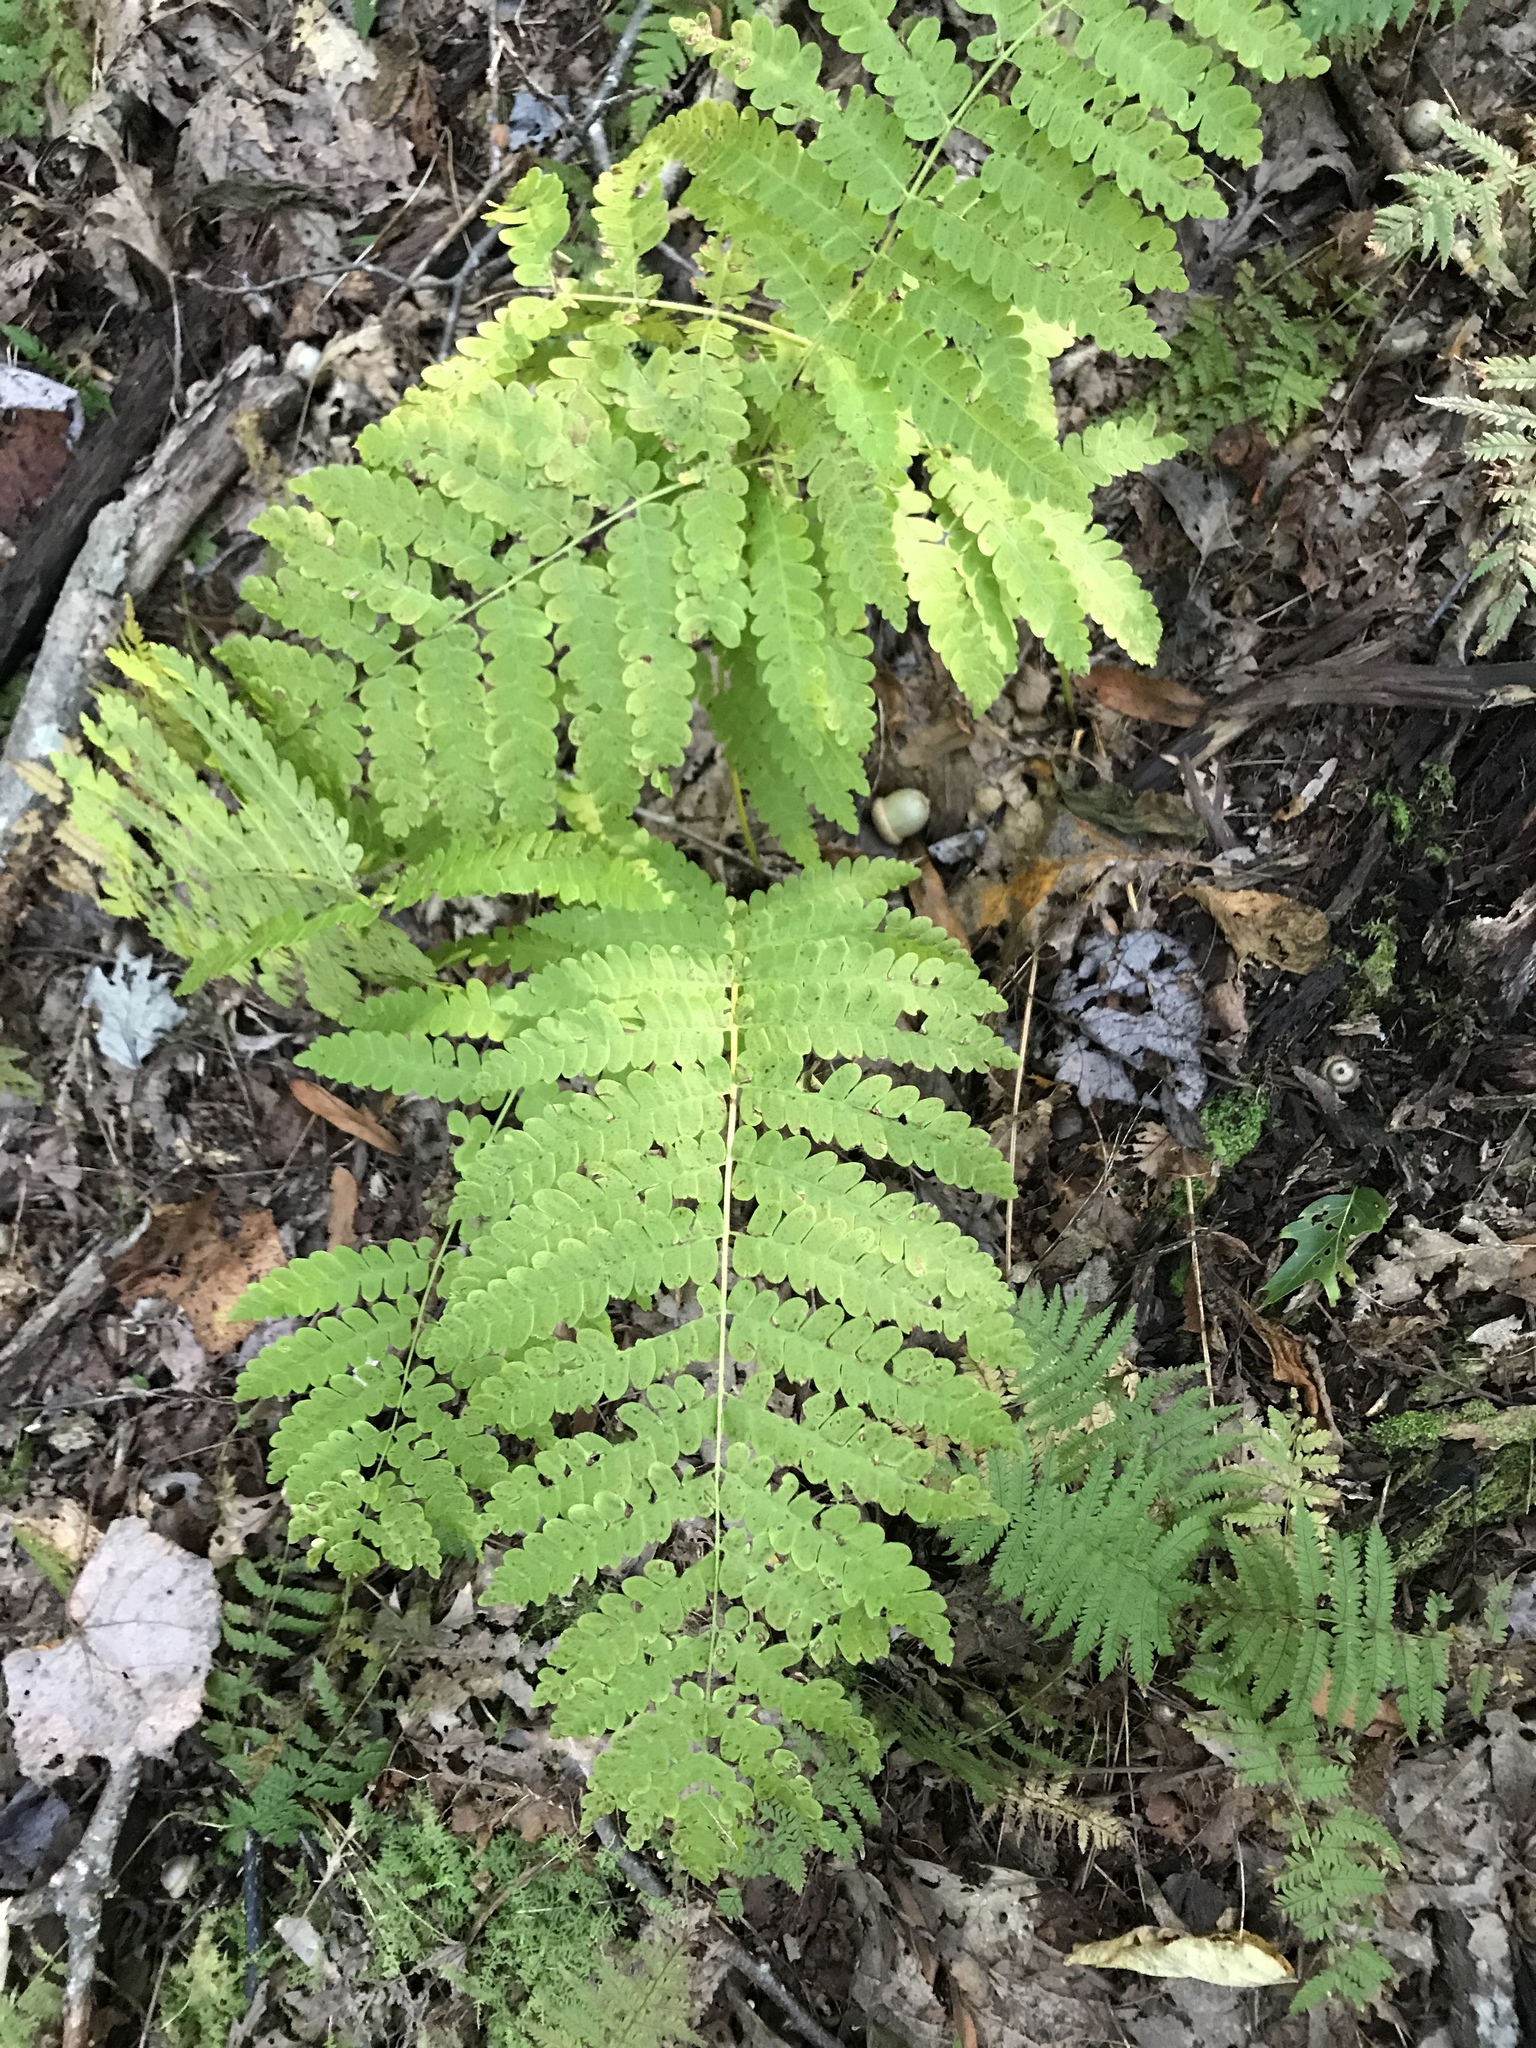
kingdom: Plantae
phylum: Tracheophyta
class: Polypodiopsida
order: Osmundales
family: Osmundaceae
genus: Claytosmunda
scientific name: Claytosmunda claytoniana
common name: Clayton's fern
